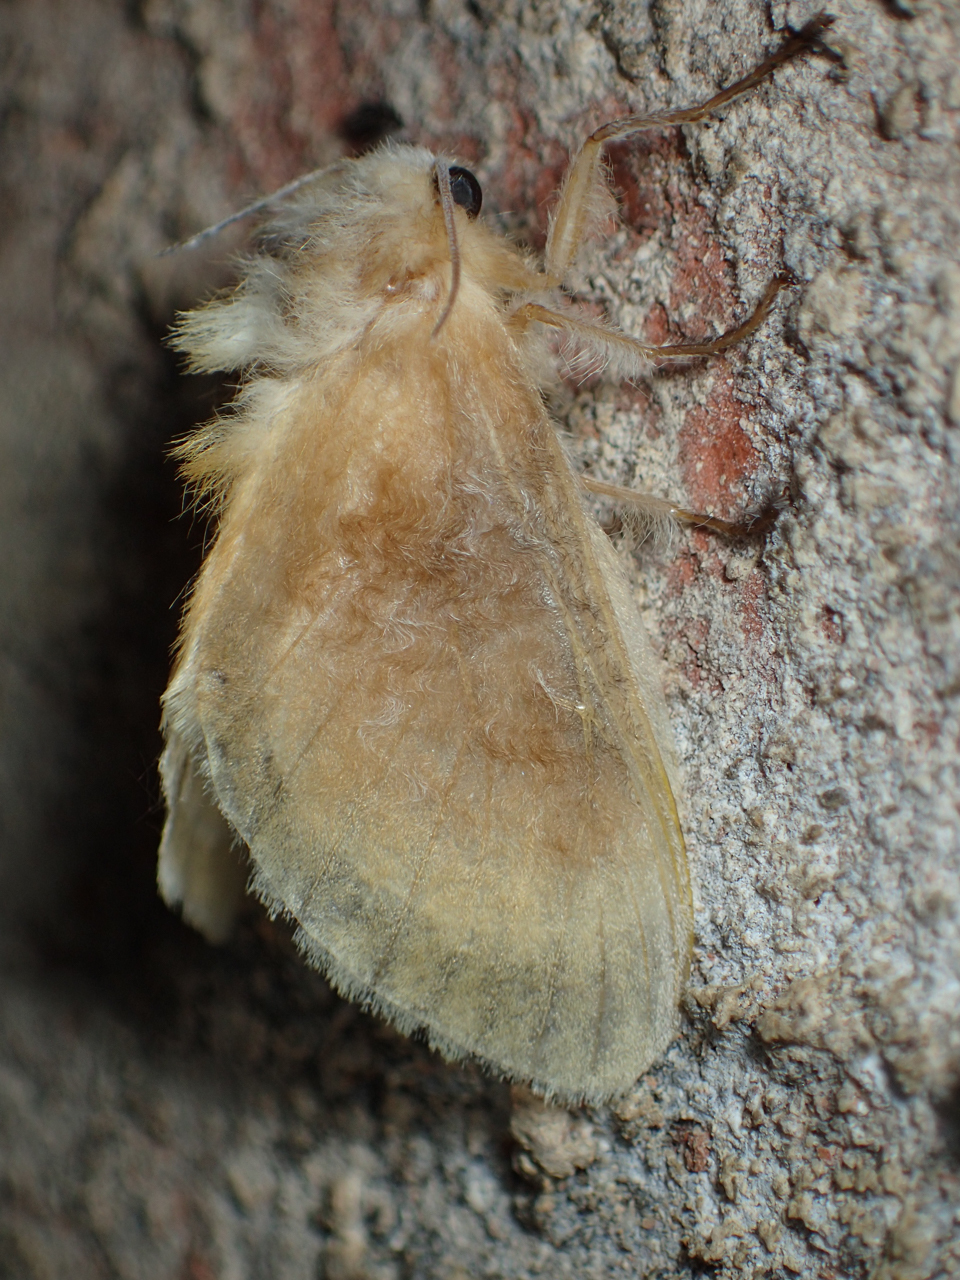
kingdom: Animalia
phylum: Arthropoda
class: Insecta
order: Lepidoptera
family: Megalopygidae
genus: Megalopyge
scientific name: Megalopyge opercularis
